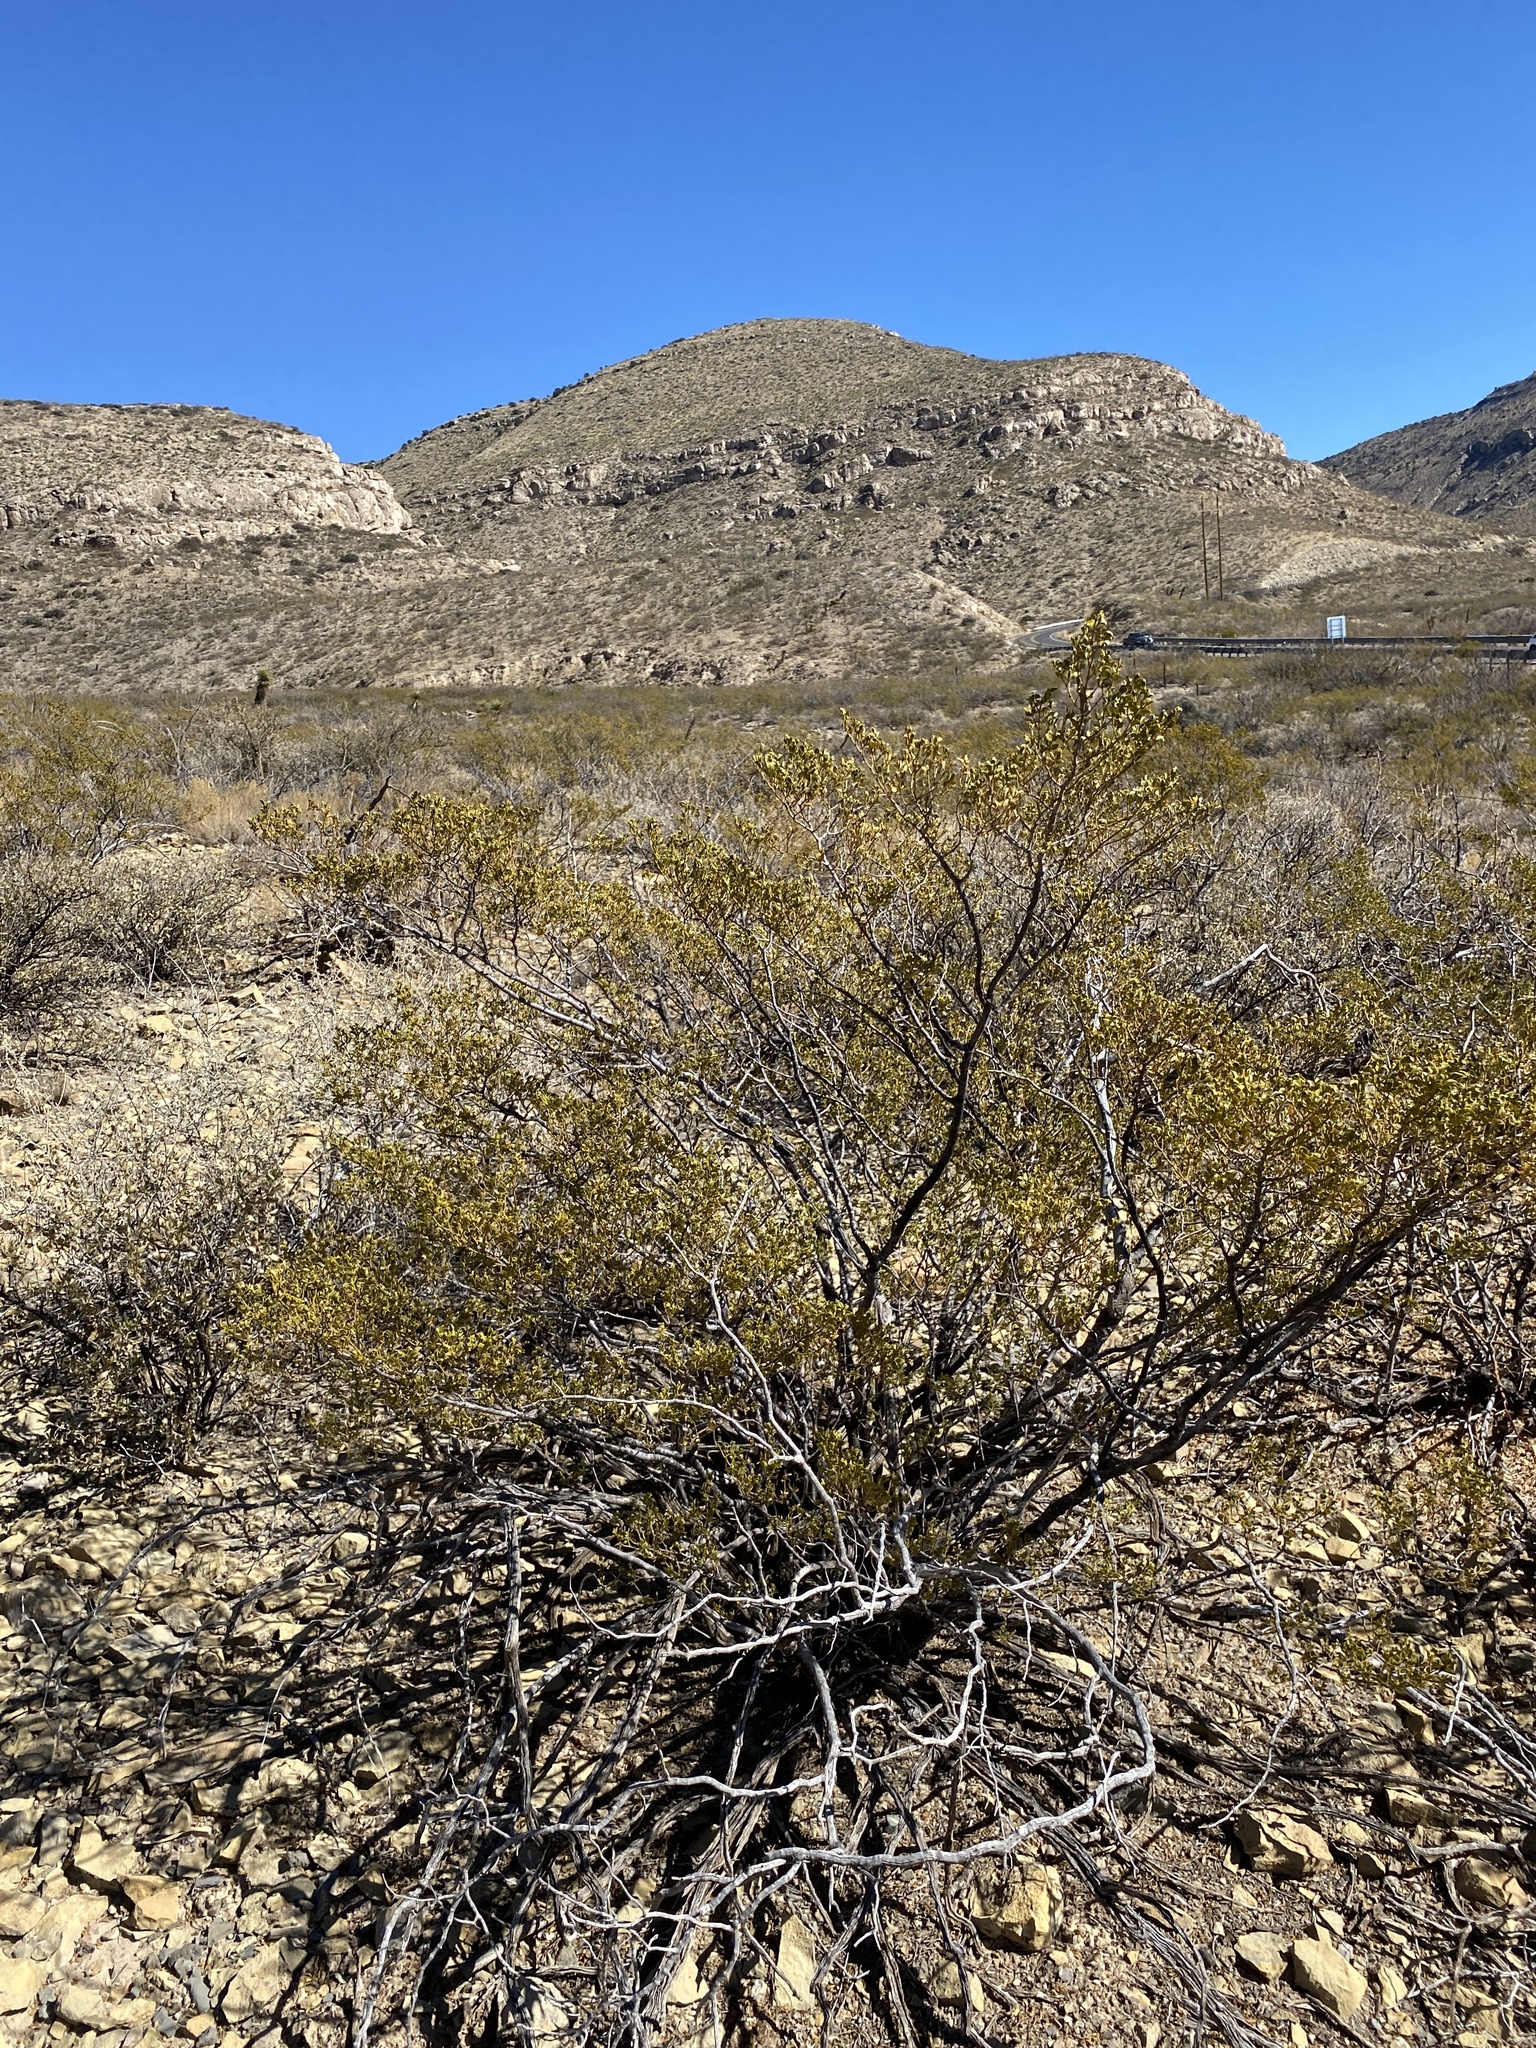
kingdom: Plantae
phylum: Tracheophyta
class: Magnoliopsida
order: Zygophyllales
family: Zygophyllaceae
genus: Larrea
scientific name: Larrea tridentata
